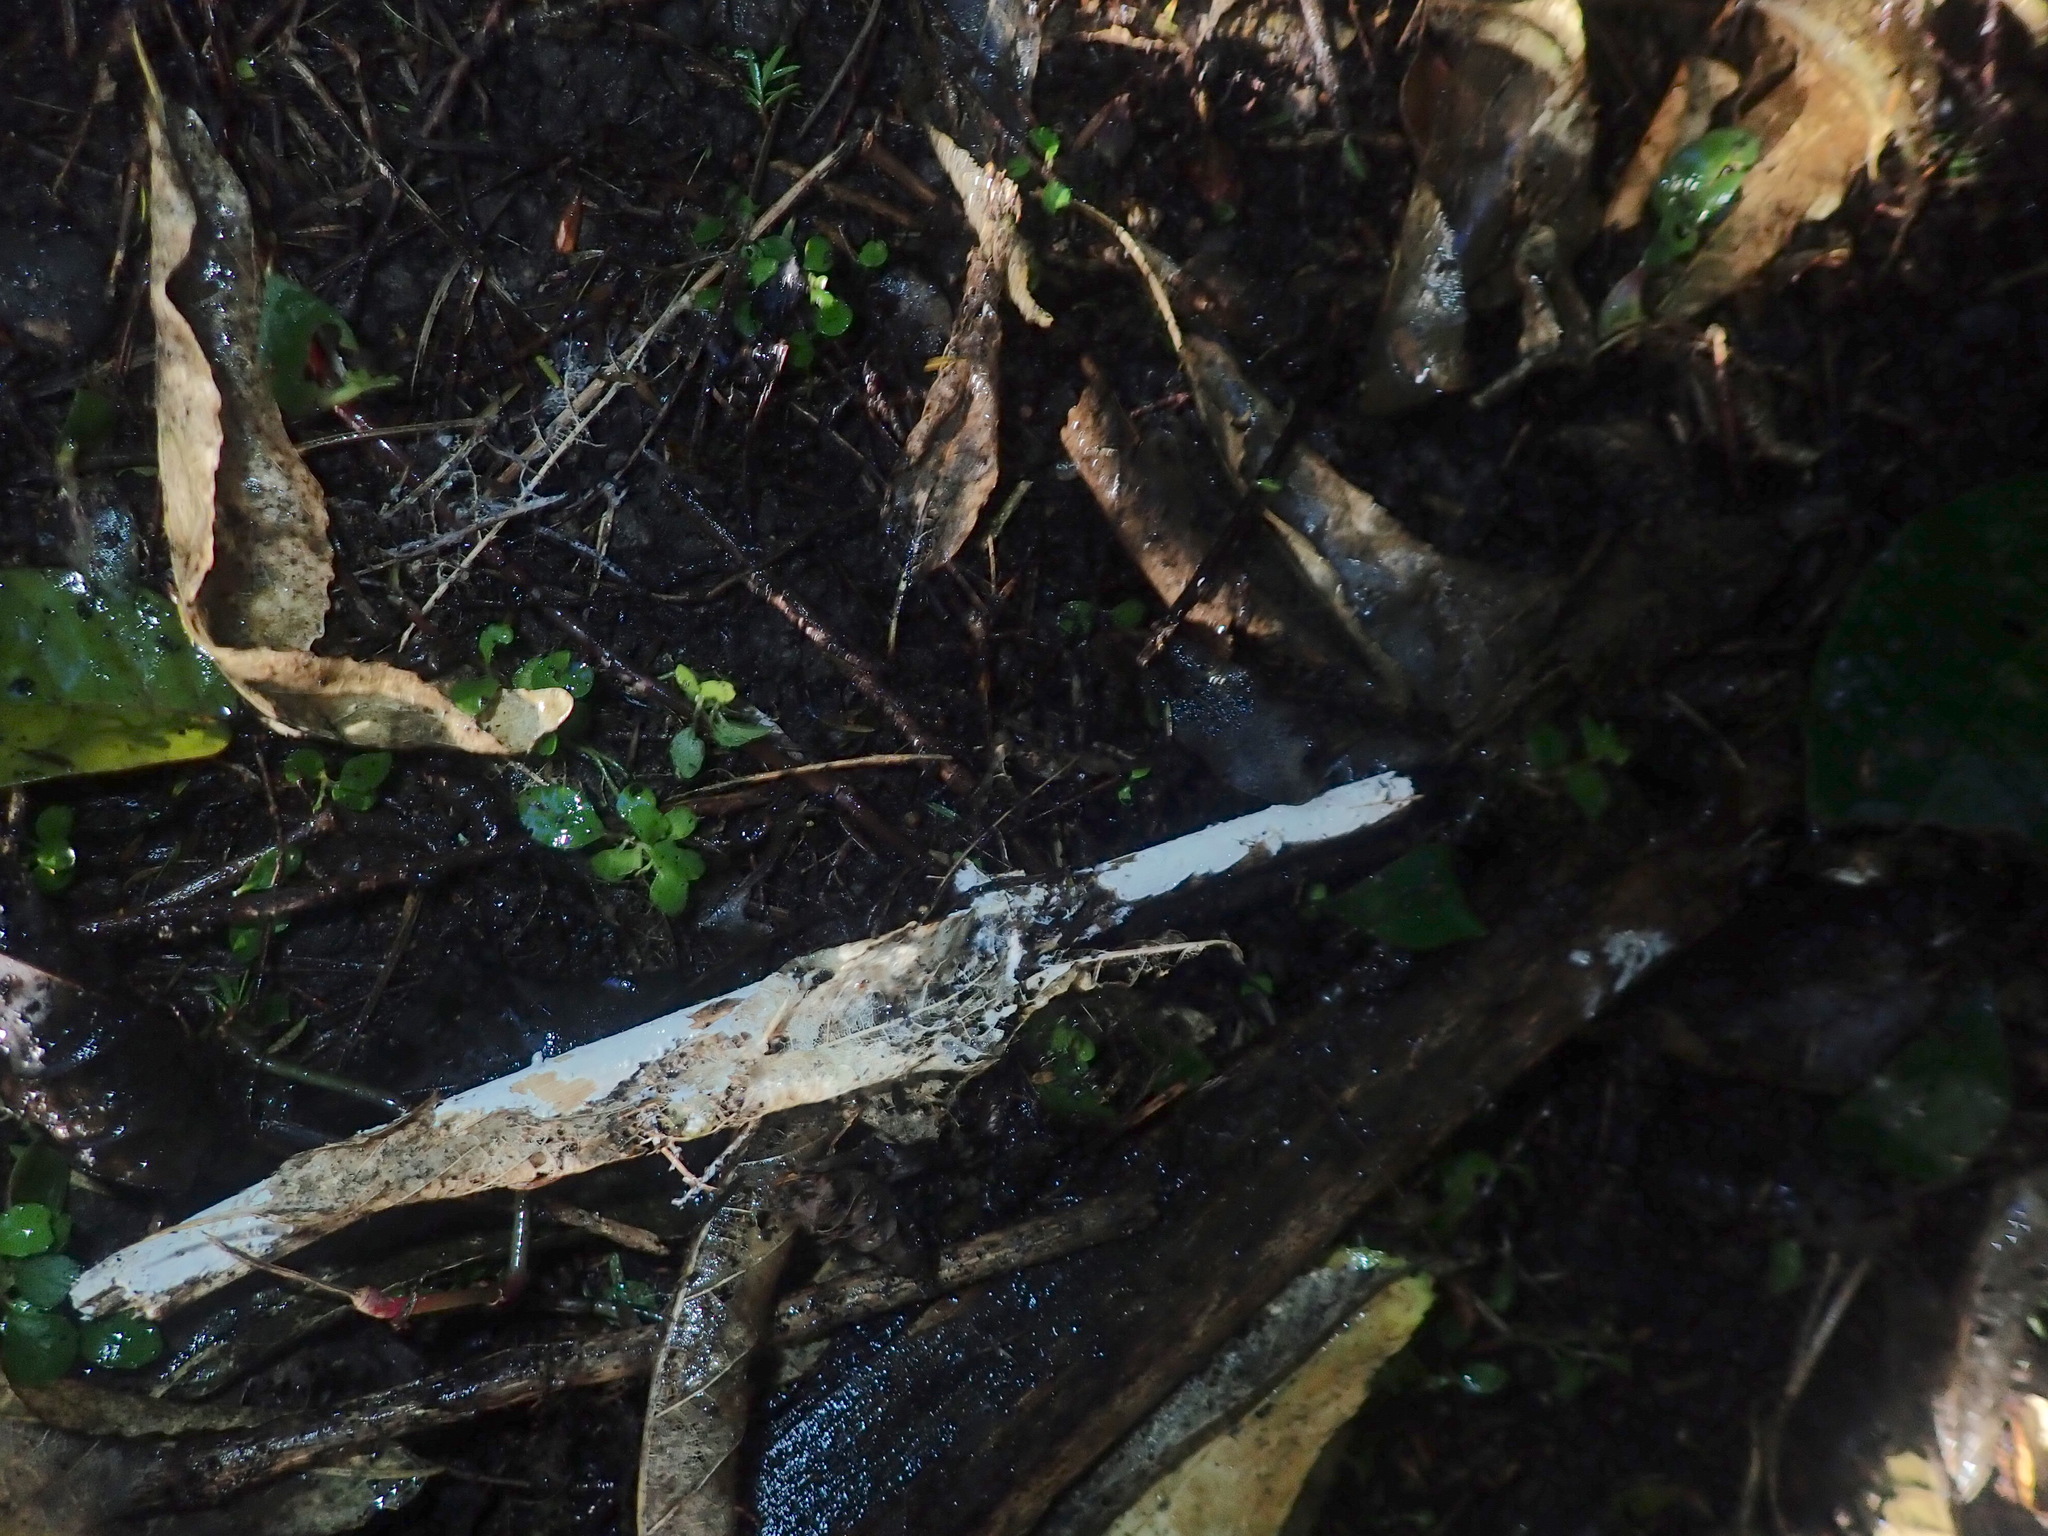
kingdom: Plantae
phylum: Tracheophyta
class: Magnoliopsida
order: Malpighiales
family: Violaceae
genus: Melicytus
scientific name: Melicytus ramiflorus
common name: Mahoe
